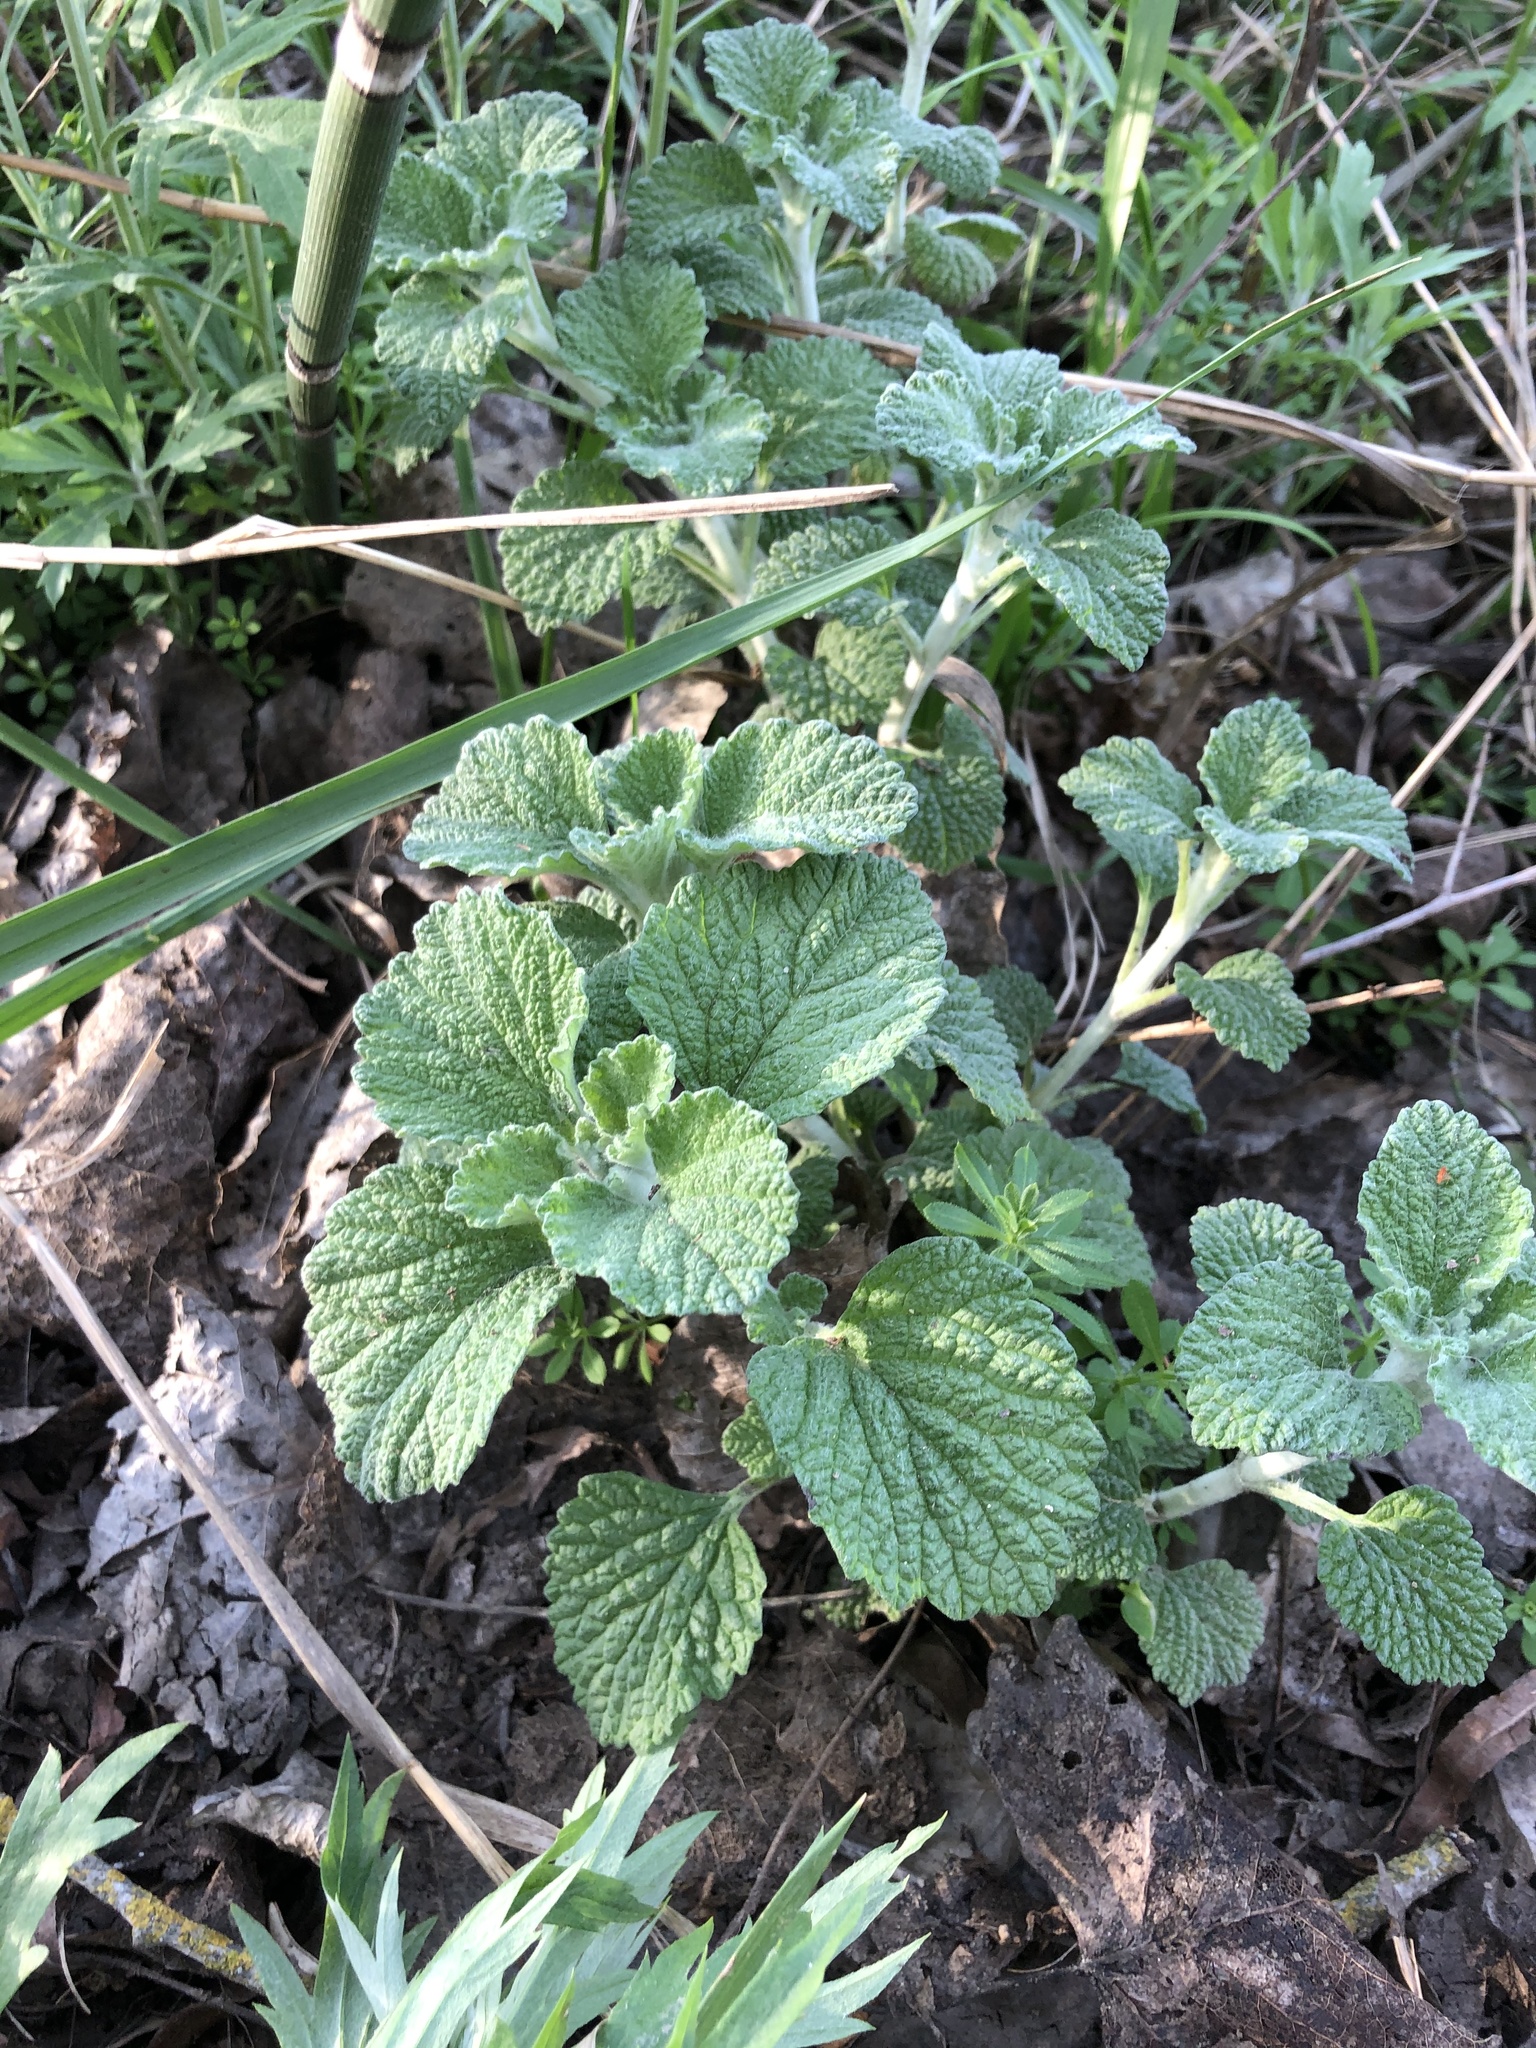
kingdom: Plantae
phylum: Tracheophyta
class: Magnoliopsida
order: Lamiales
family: Lamiaceae
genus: Marrubium
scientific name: Marrubium vulgare
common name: Horehound
